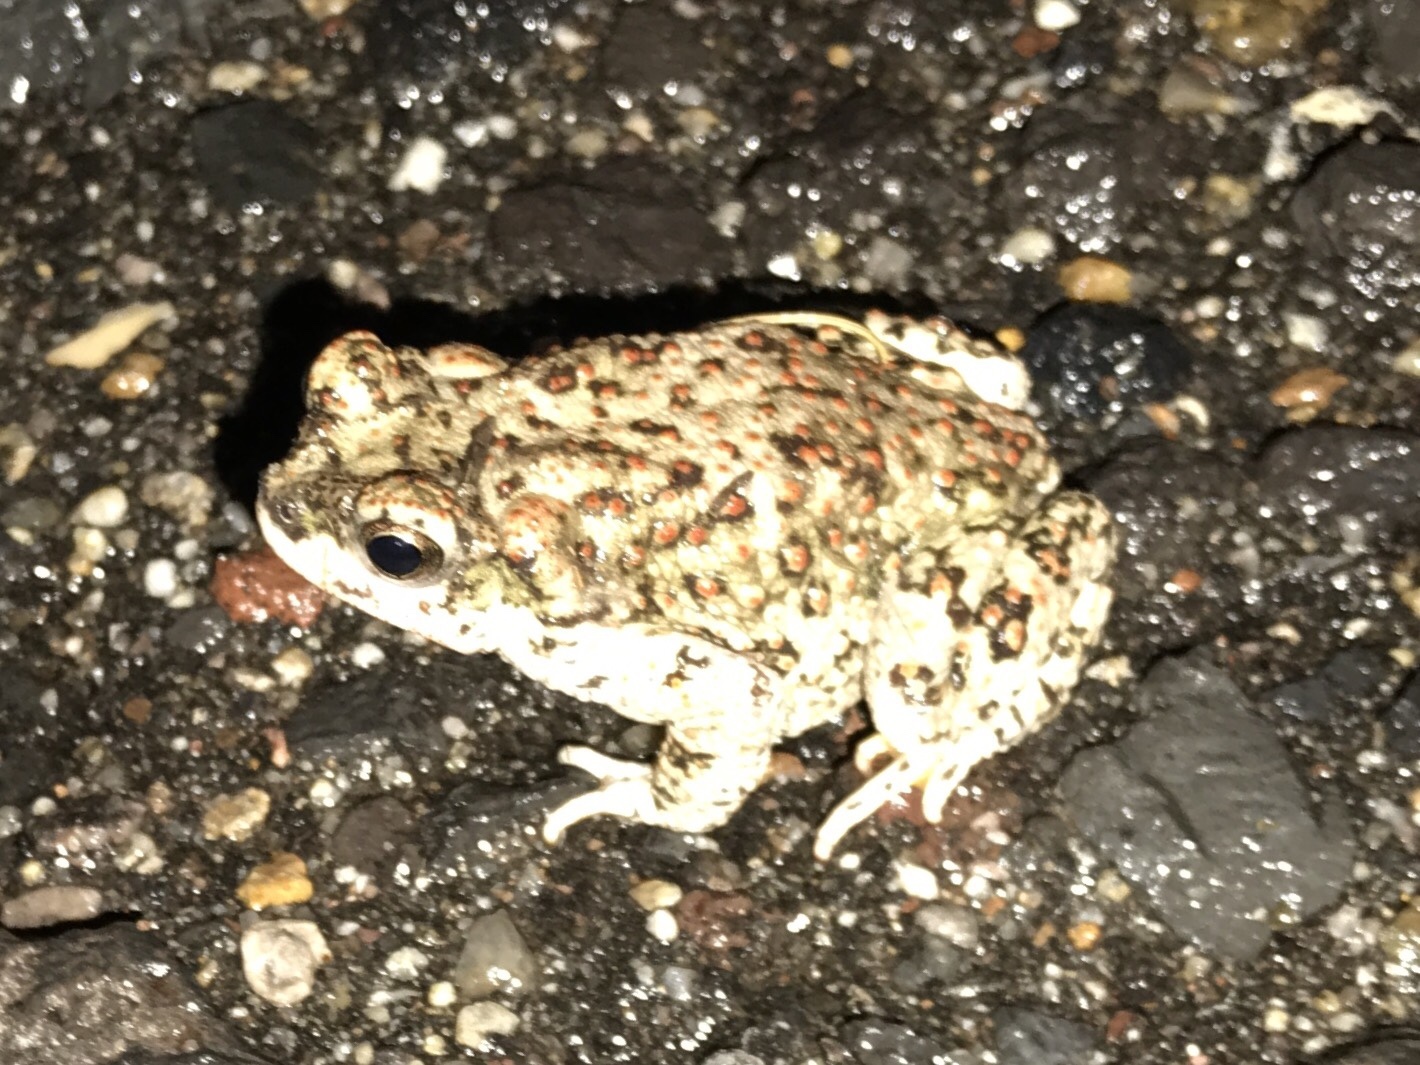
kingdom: Animalia
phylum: Chordata
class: Amphibia
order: Anura
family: Bufonidae
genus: Anaxyrus
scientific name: Anaxyrus punctatus
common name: Red-spotted toad
